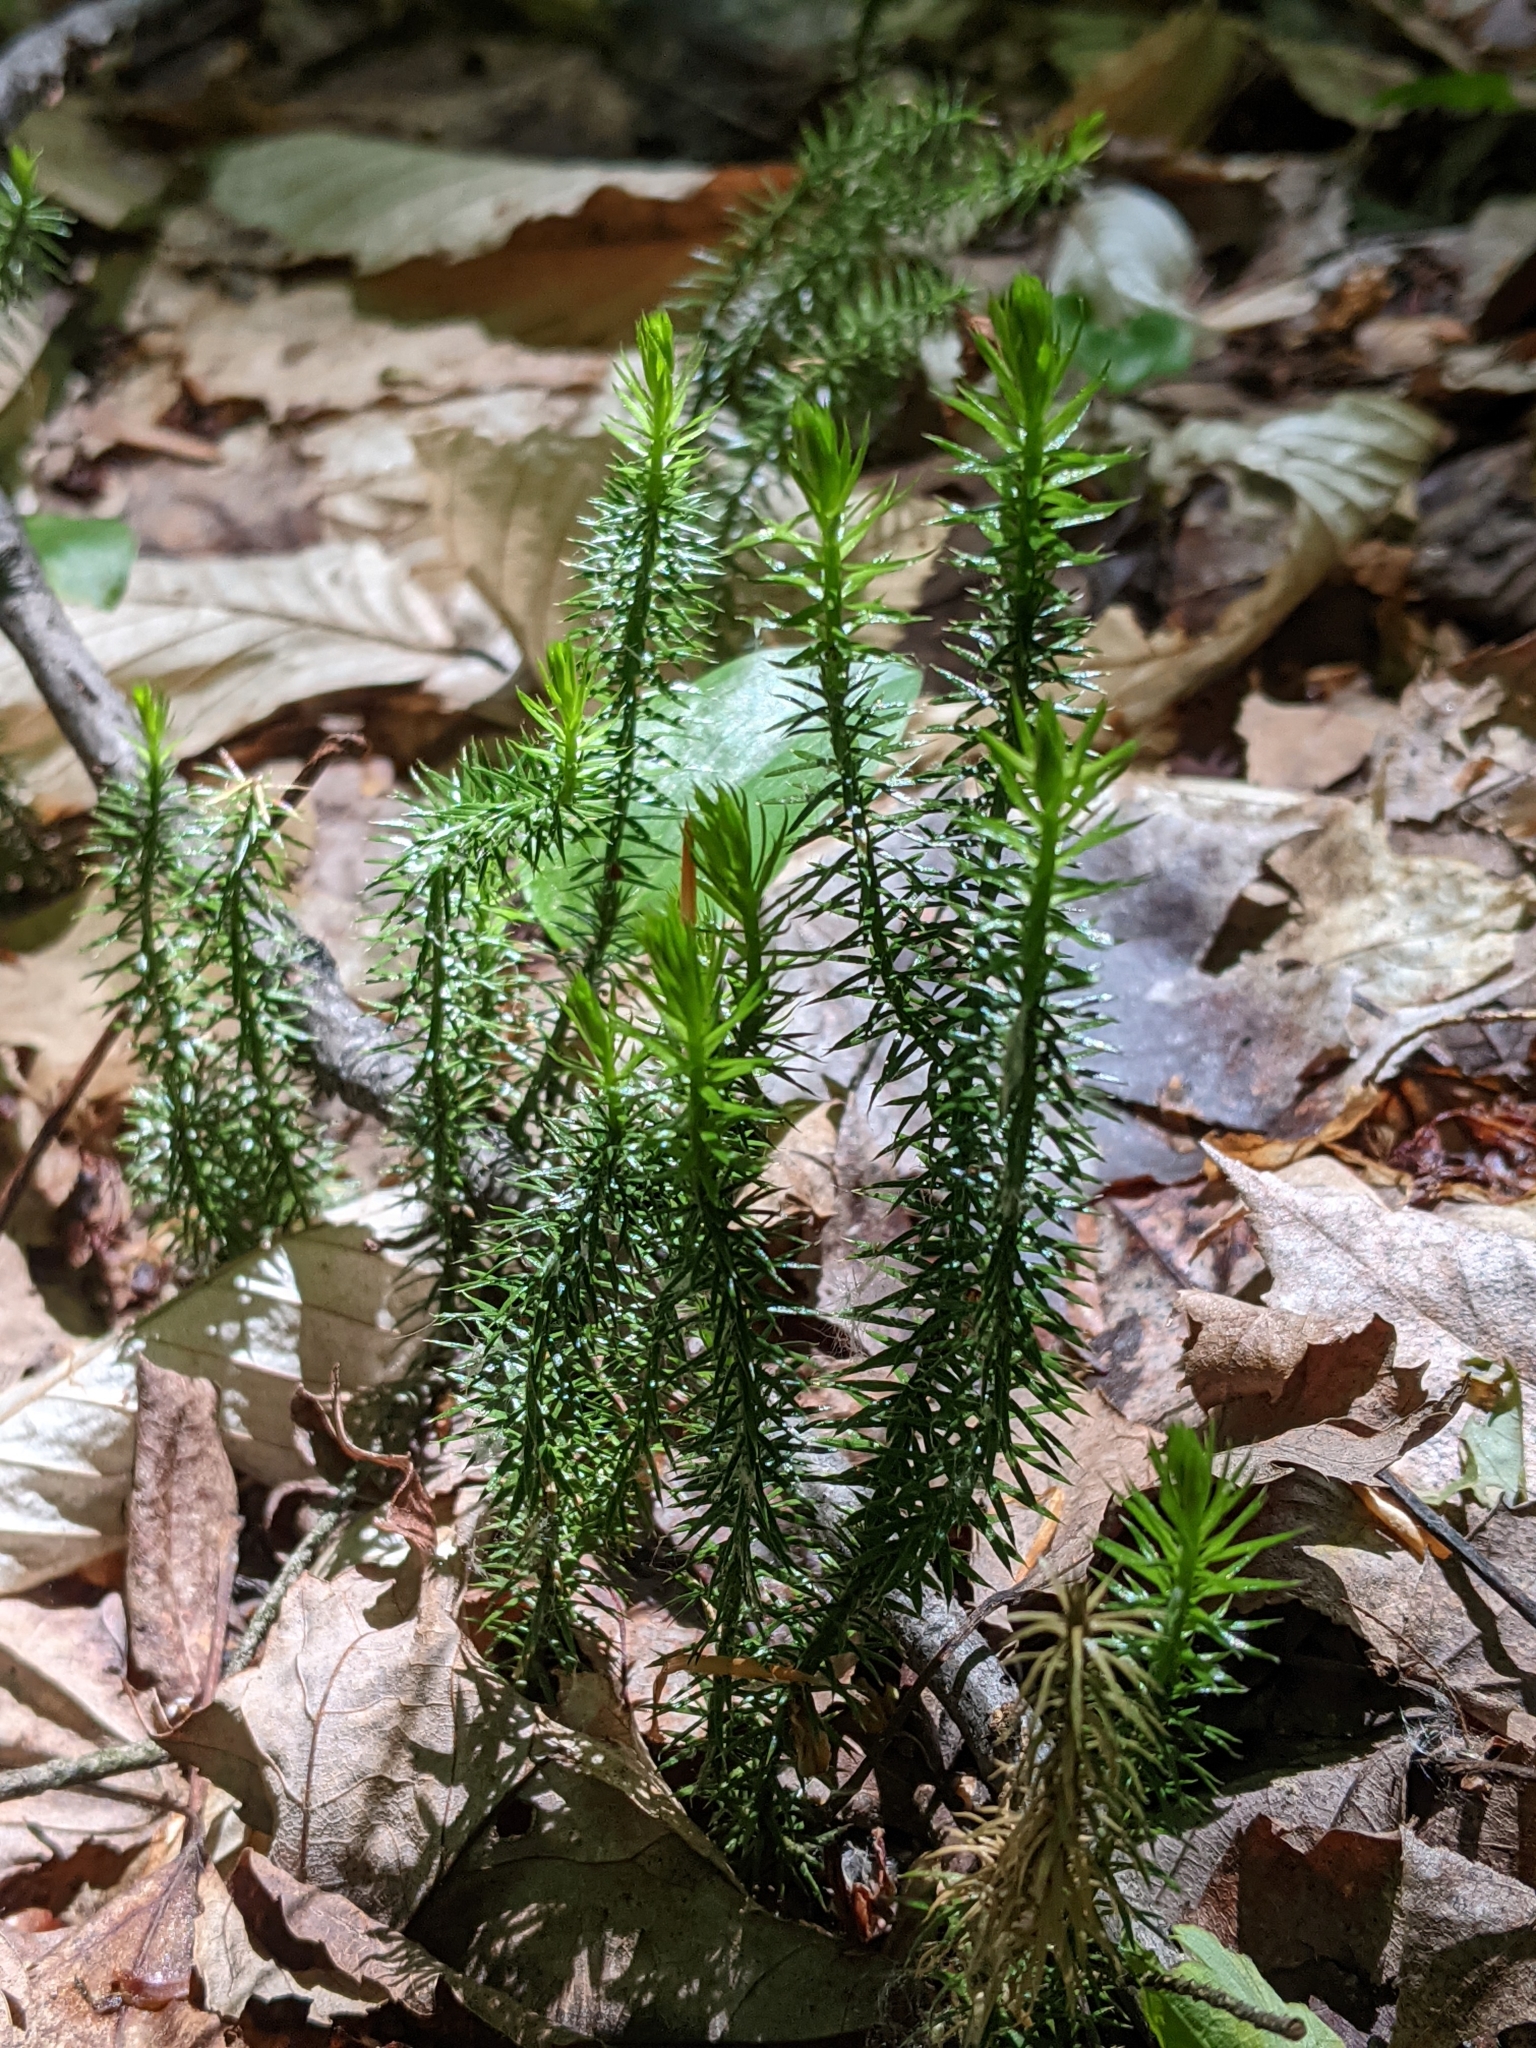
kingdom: Plantae
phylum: Tracheophyta
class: Lycopodiopsida
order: Lycopodiales
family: Lycopodiaceae
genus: Spinulum
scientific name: Spinulum annotinum
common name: Interrupted club-moss
